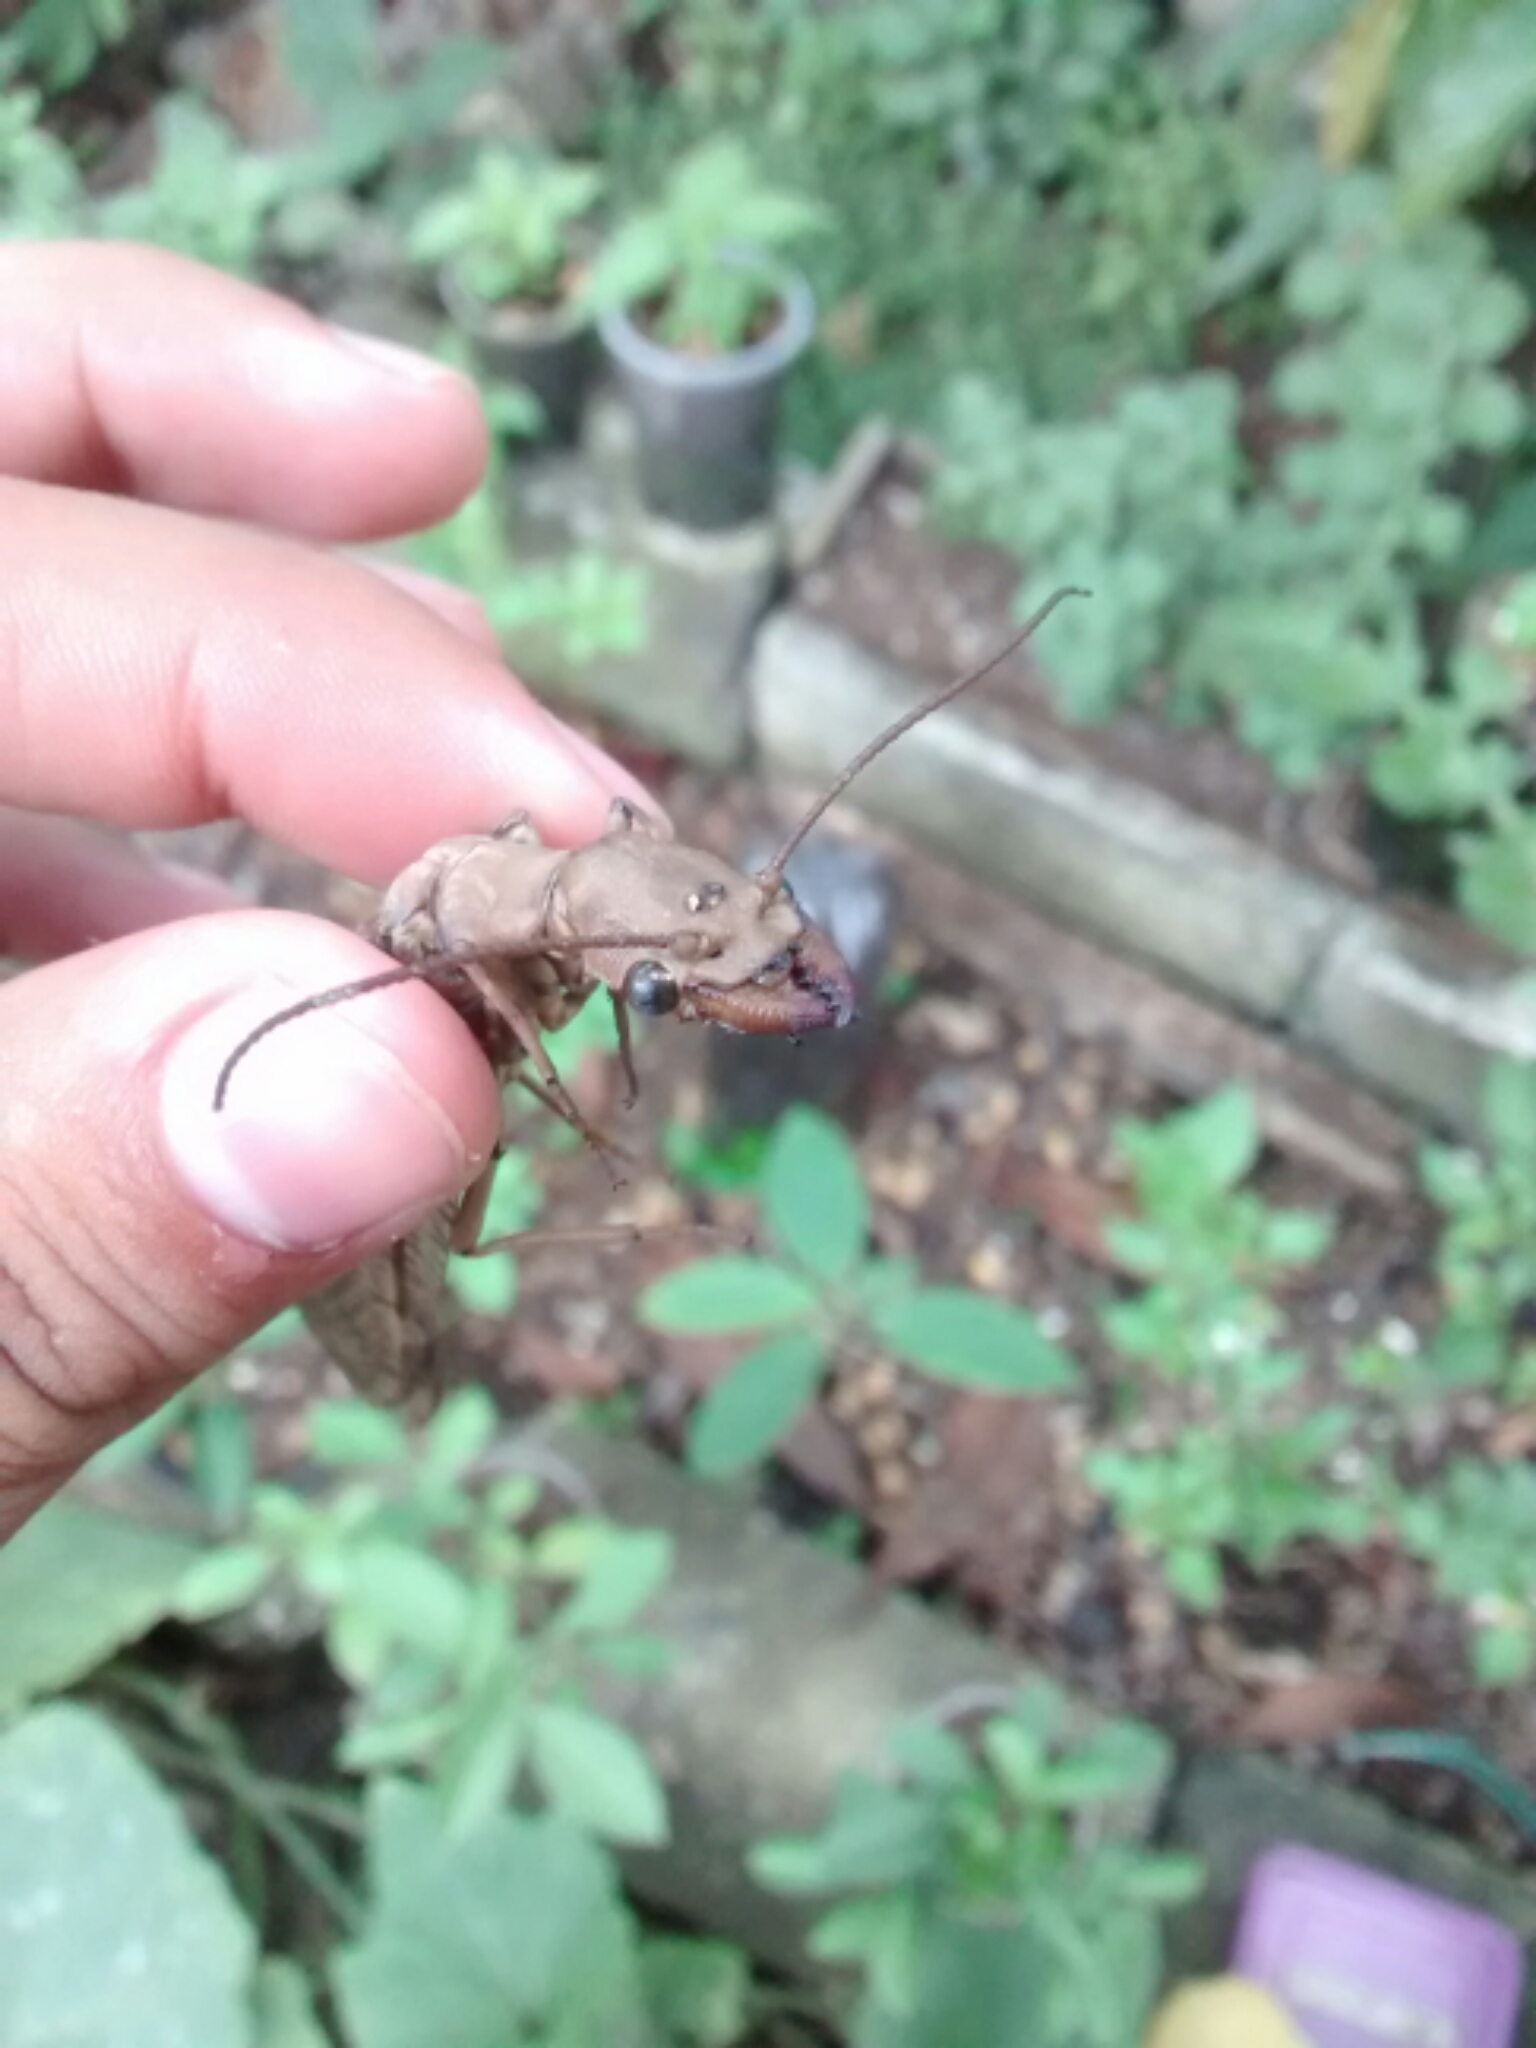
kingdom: Animalia
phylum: Arthropoda
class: Insecta
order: Megaloptera
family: Corydalidae
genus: Corydalus
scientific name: Corydalus luteus
